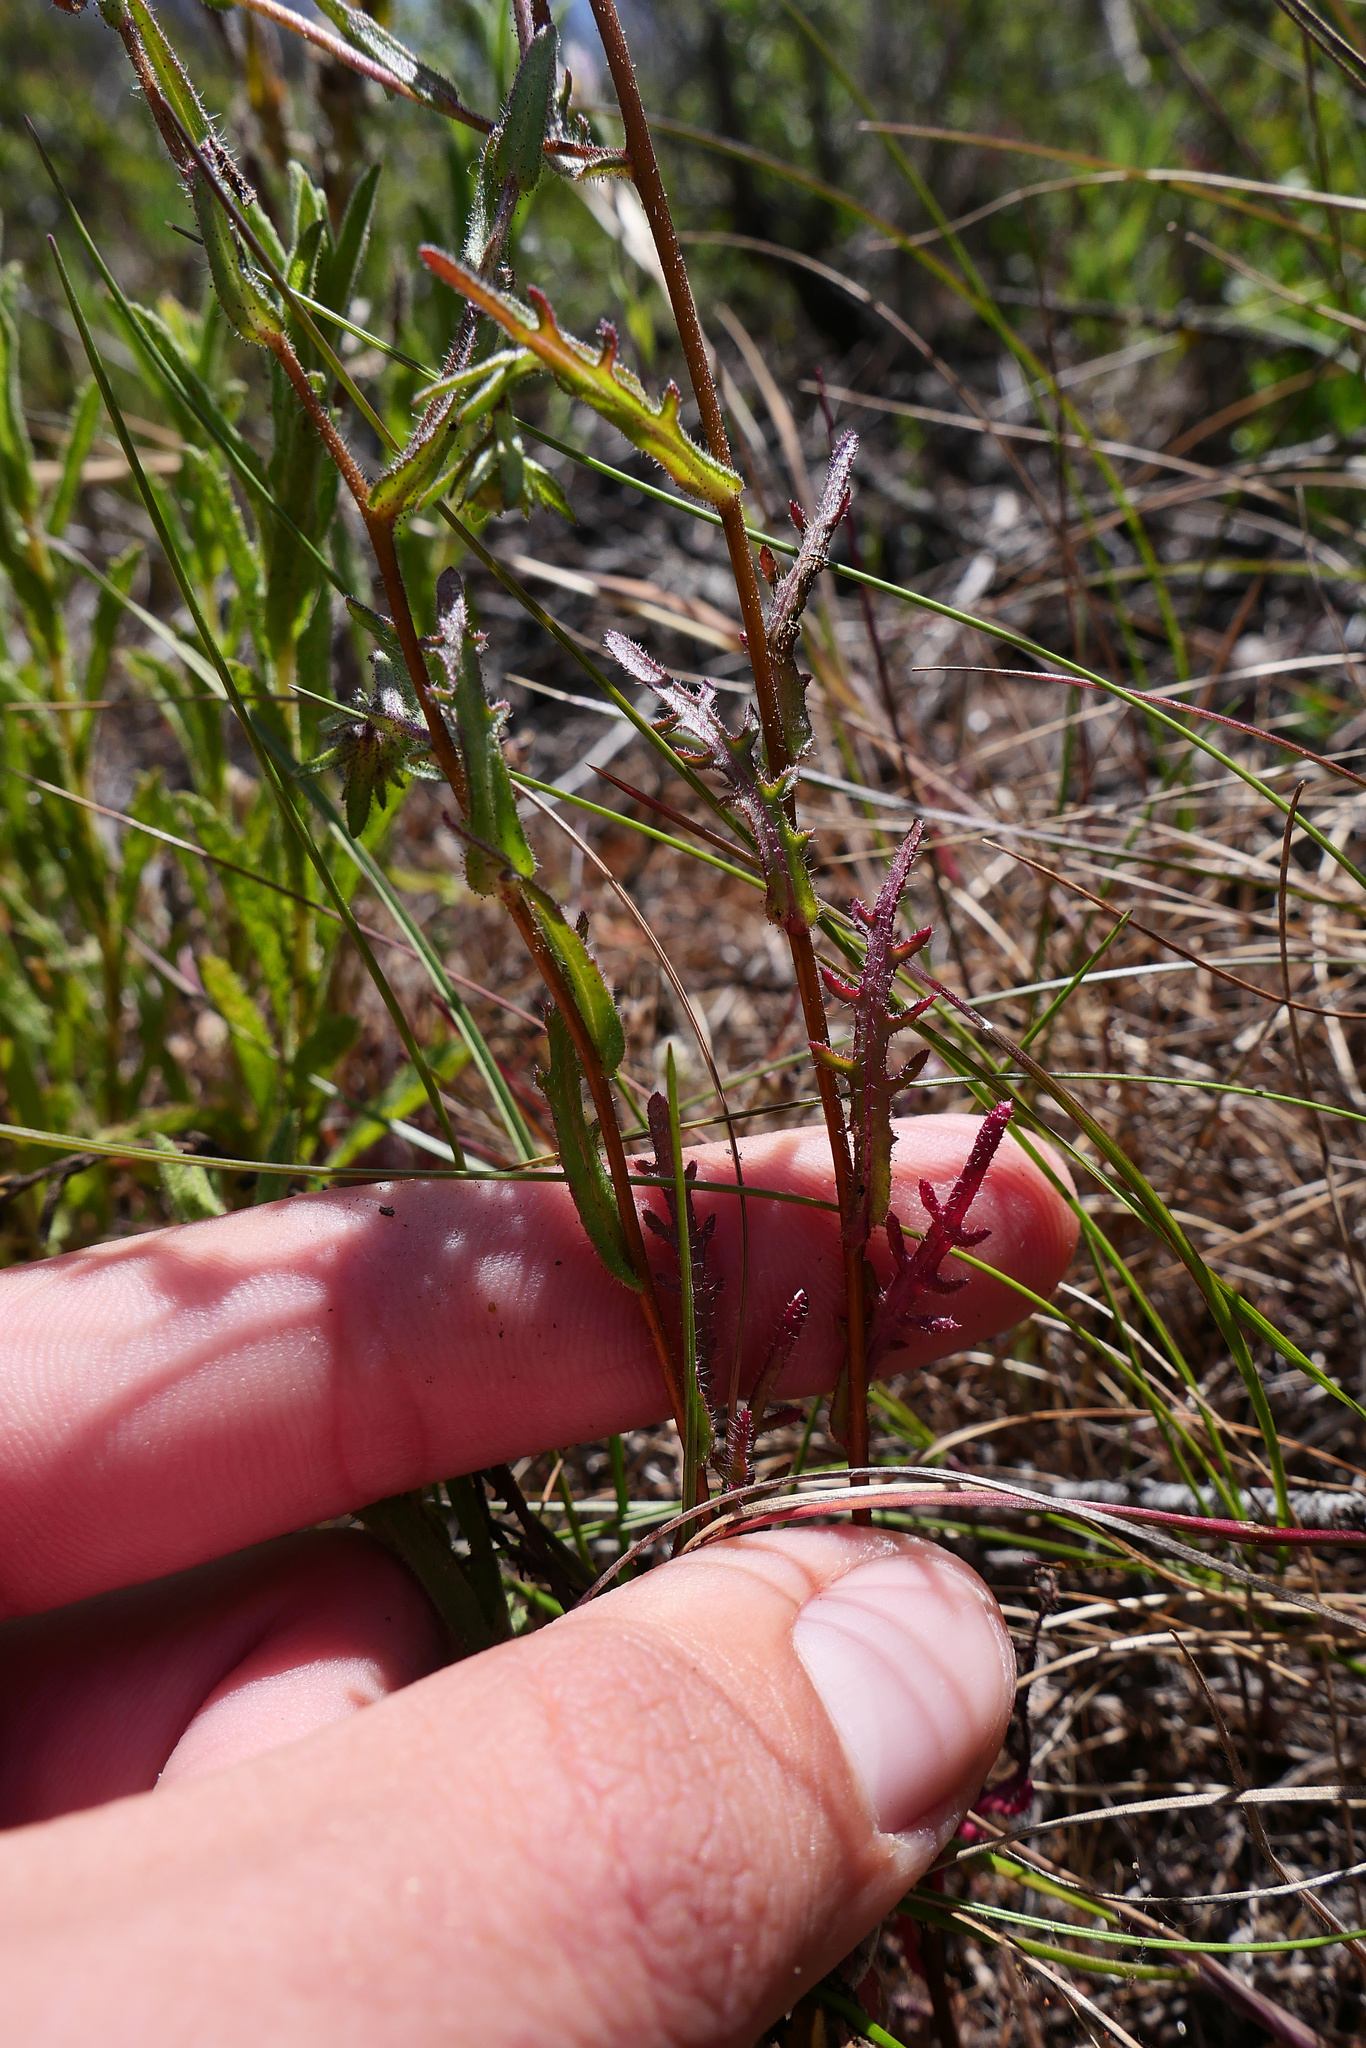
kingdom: Plantae
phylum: Tracheophyta
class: Magnoliopsida
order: Asterales
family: Asteraceae
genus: Layia
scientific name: Layia erubescens
